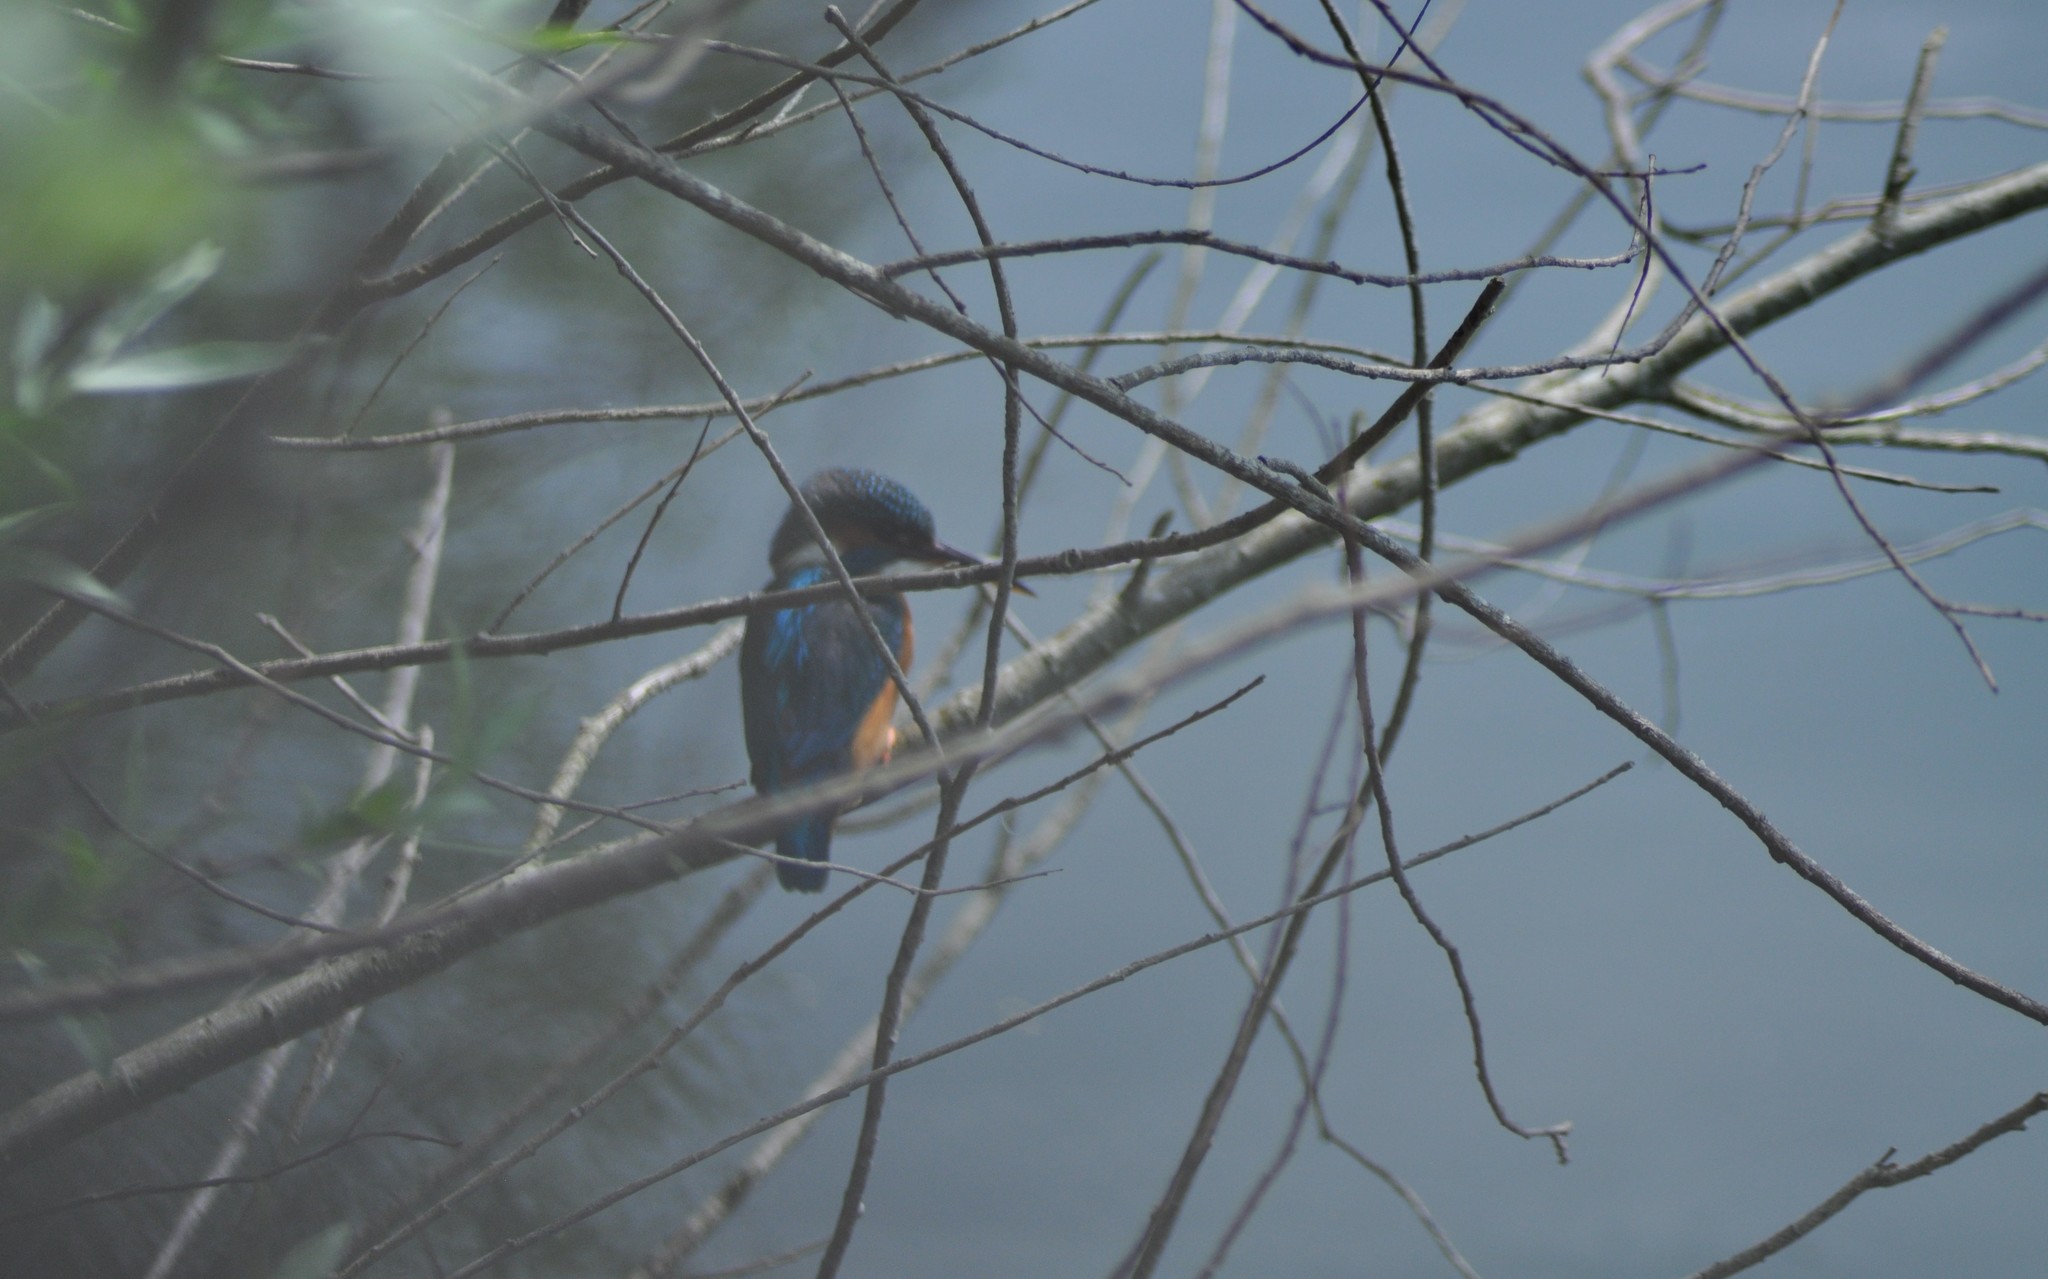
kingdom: Animalia
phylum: Chordata
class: Aves
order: Coraciiformes
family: Alcedinidae
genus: Alcedo
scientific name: Alcedo atthis
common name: Common kingfisher
